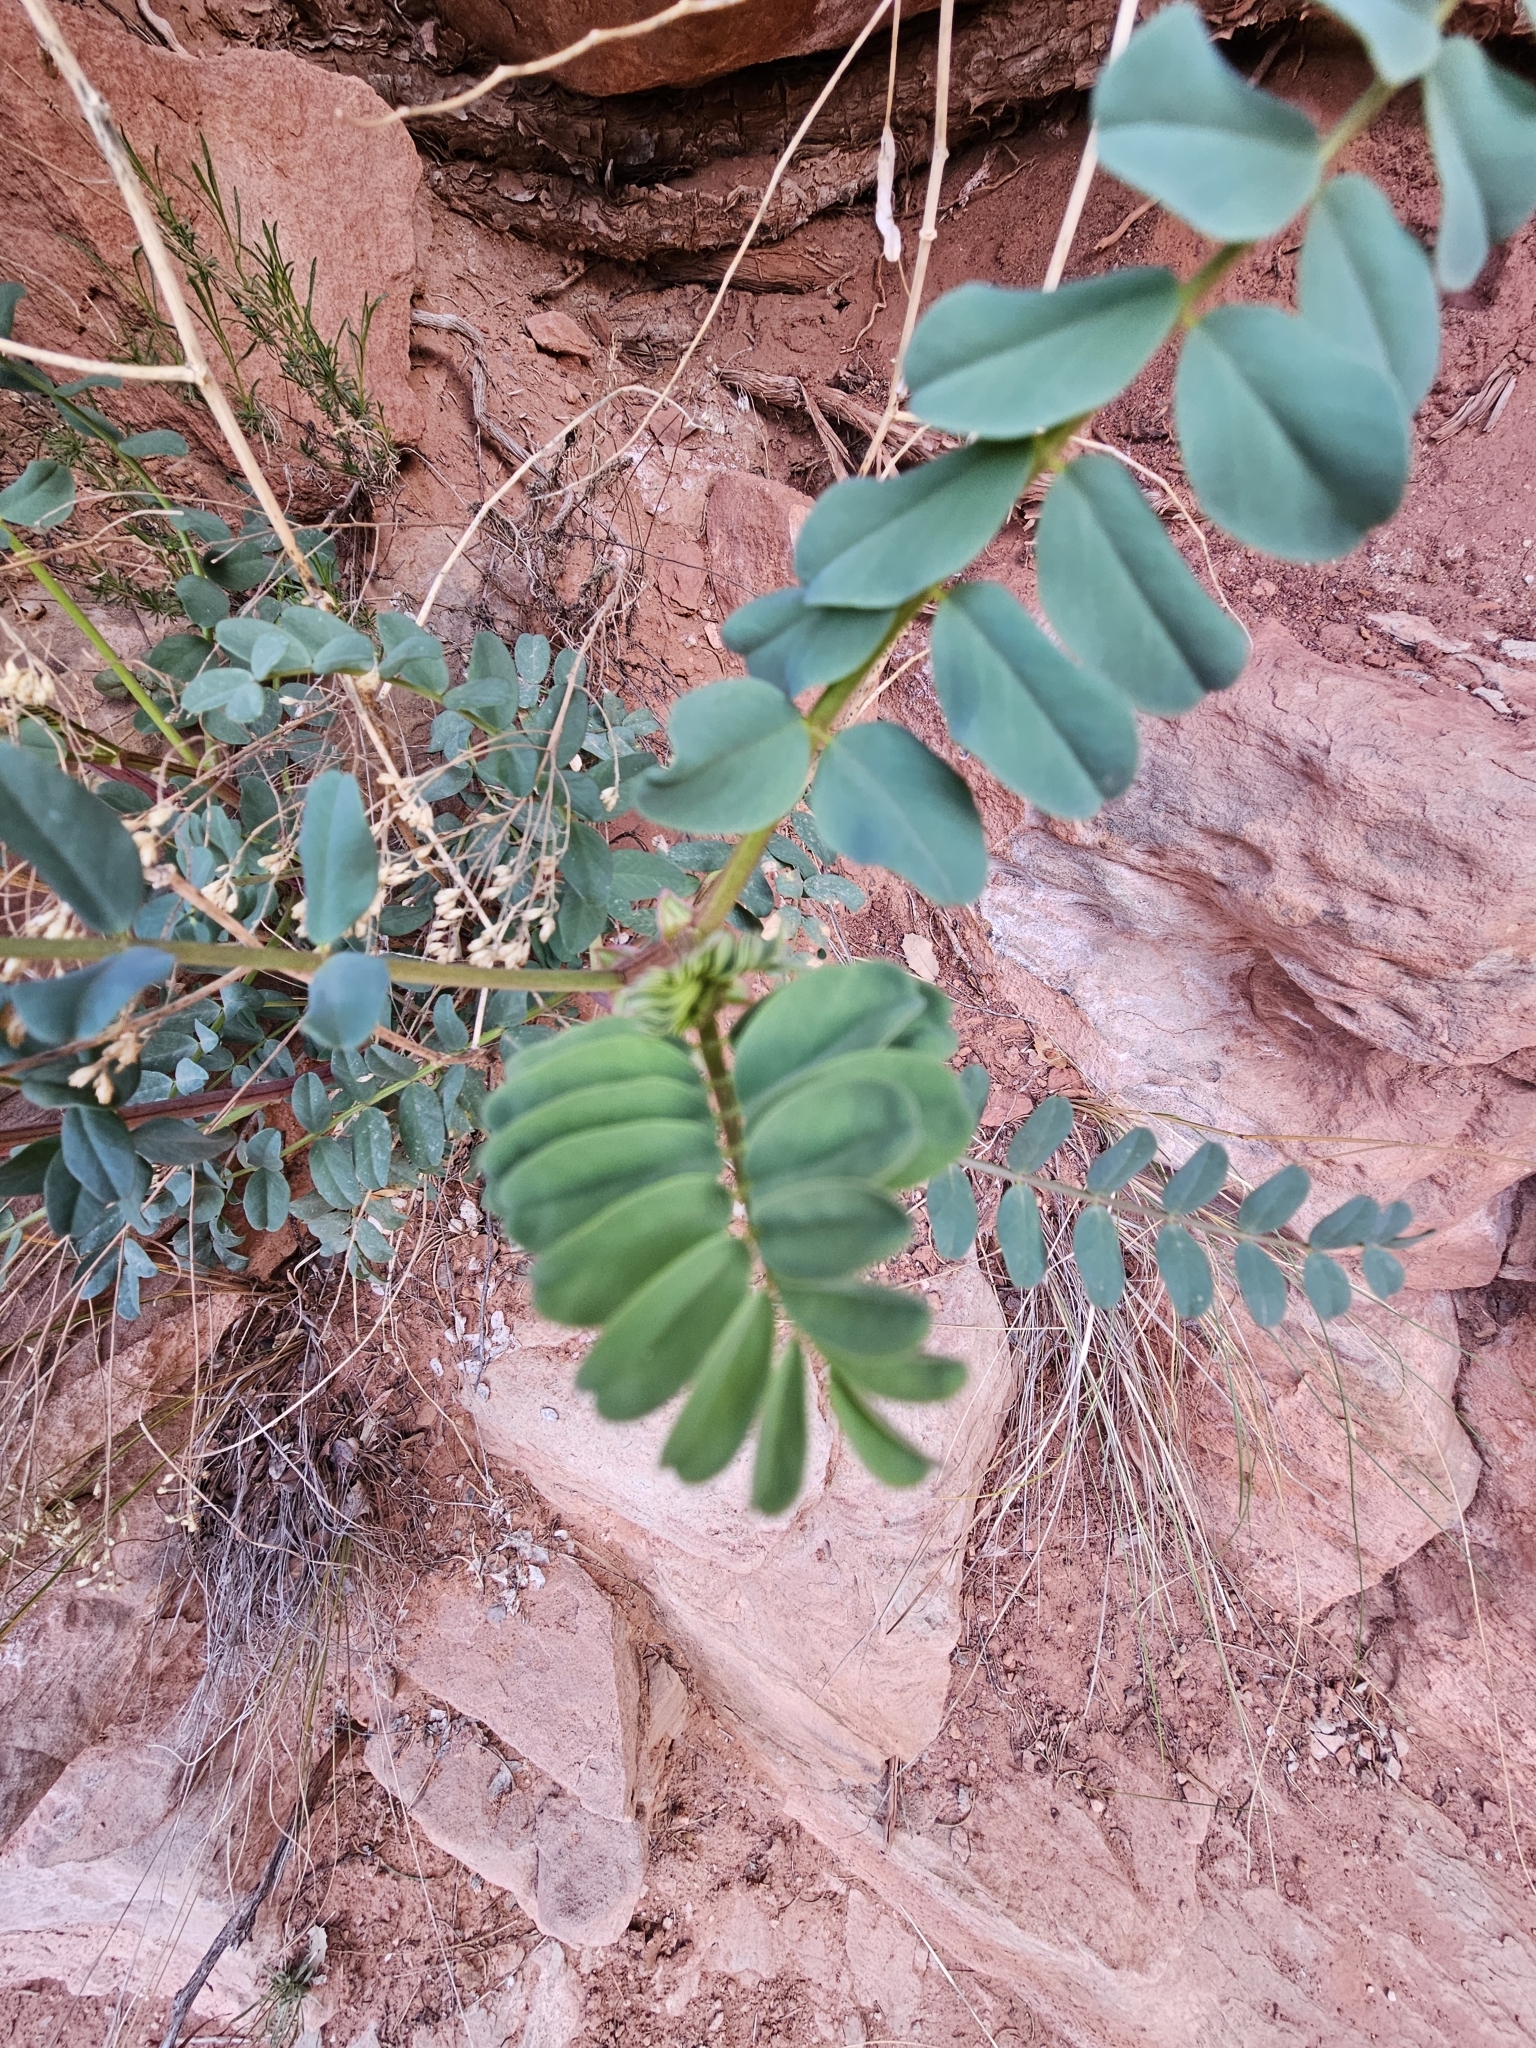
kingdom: Plantae
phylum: Tracheophyta
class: Magnoliopsida
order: Fabales
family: Fabaceae
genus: Astragalus
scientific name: Astragalus praelongus
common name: Stinking milk-vetch
